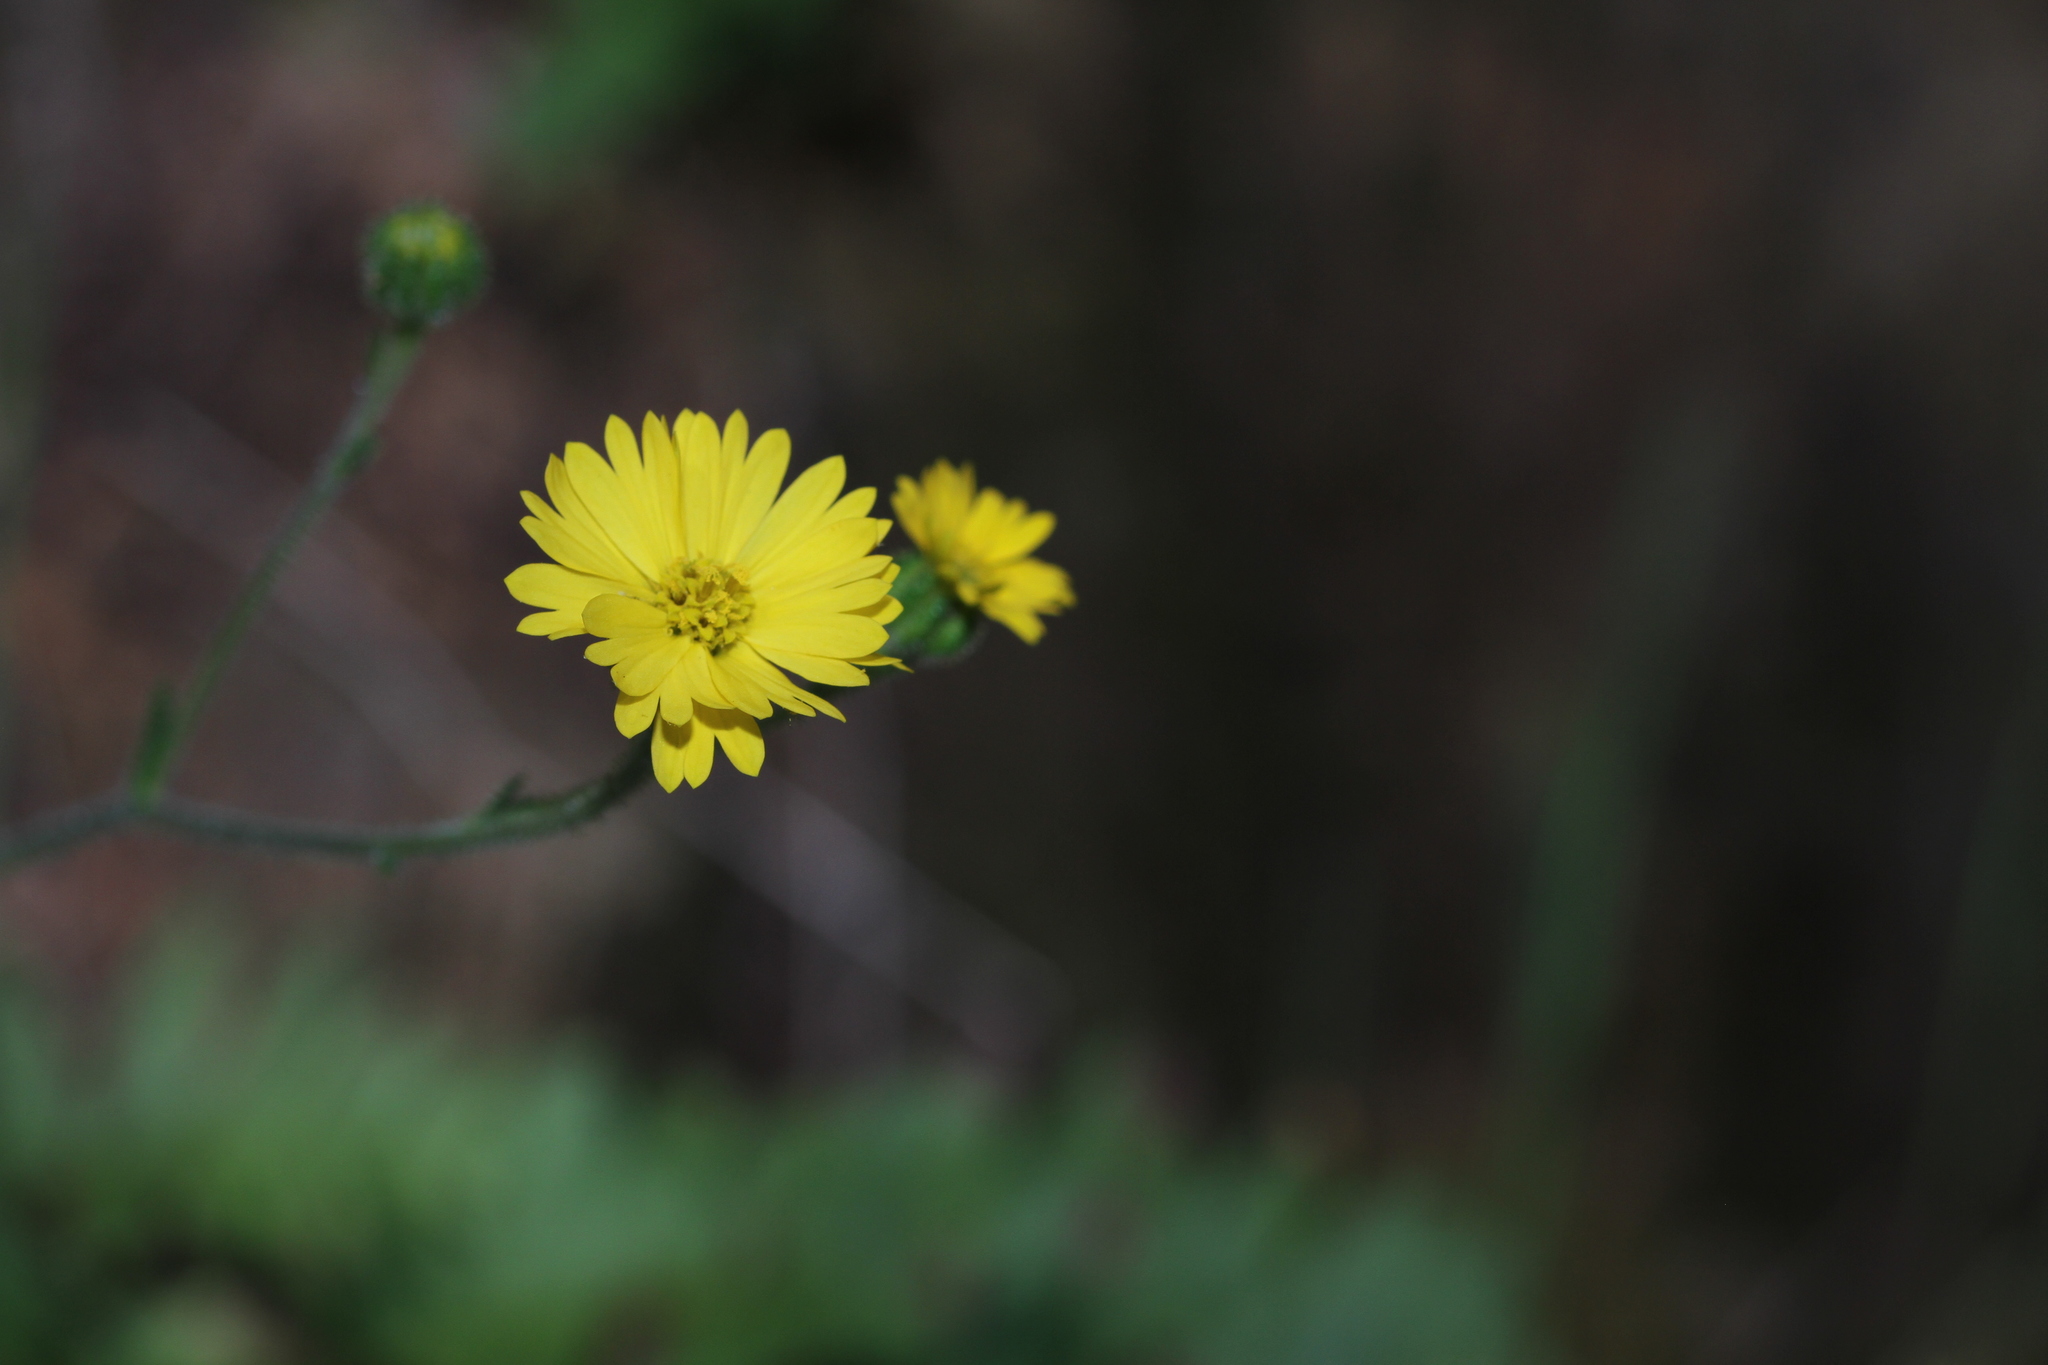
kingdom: Plantae
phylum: Tracheophyta
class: Magnoliopsida
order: Asterales
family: Asteraceae
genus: Anisocarpus
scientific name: Anisocarpus madioides
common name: Woodland madia
